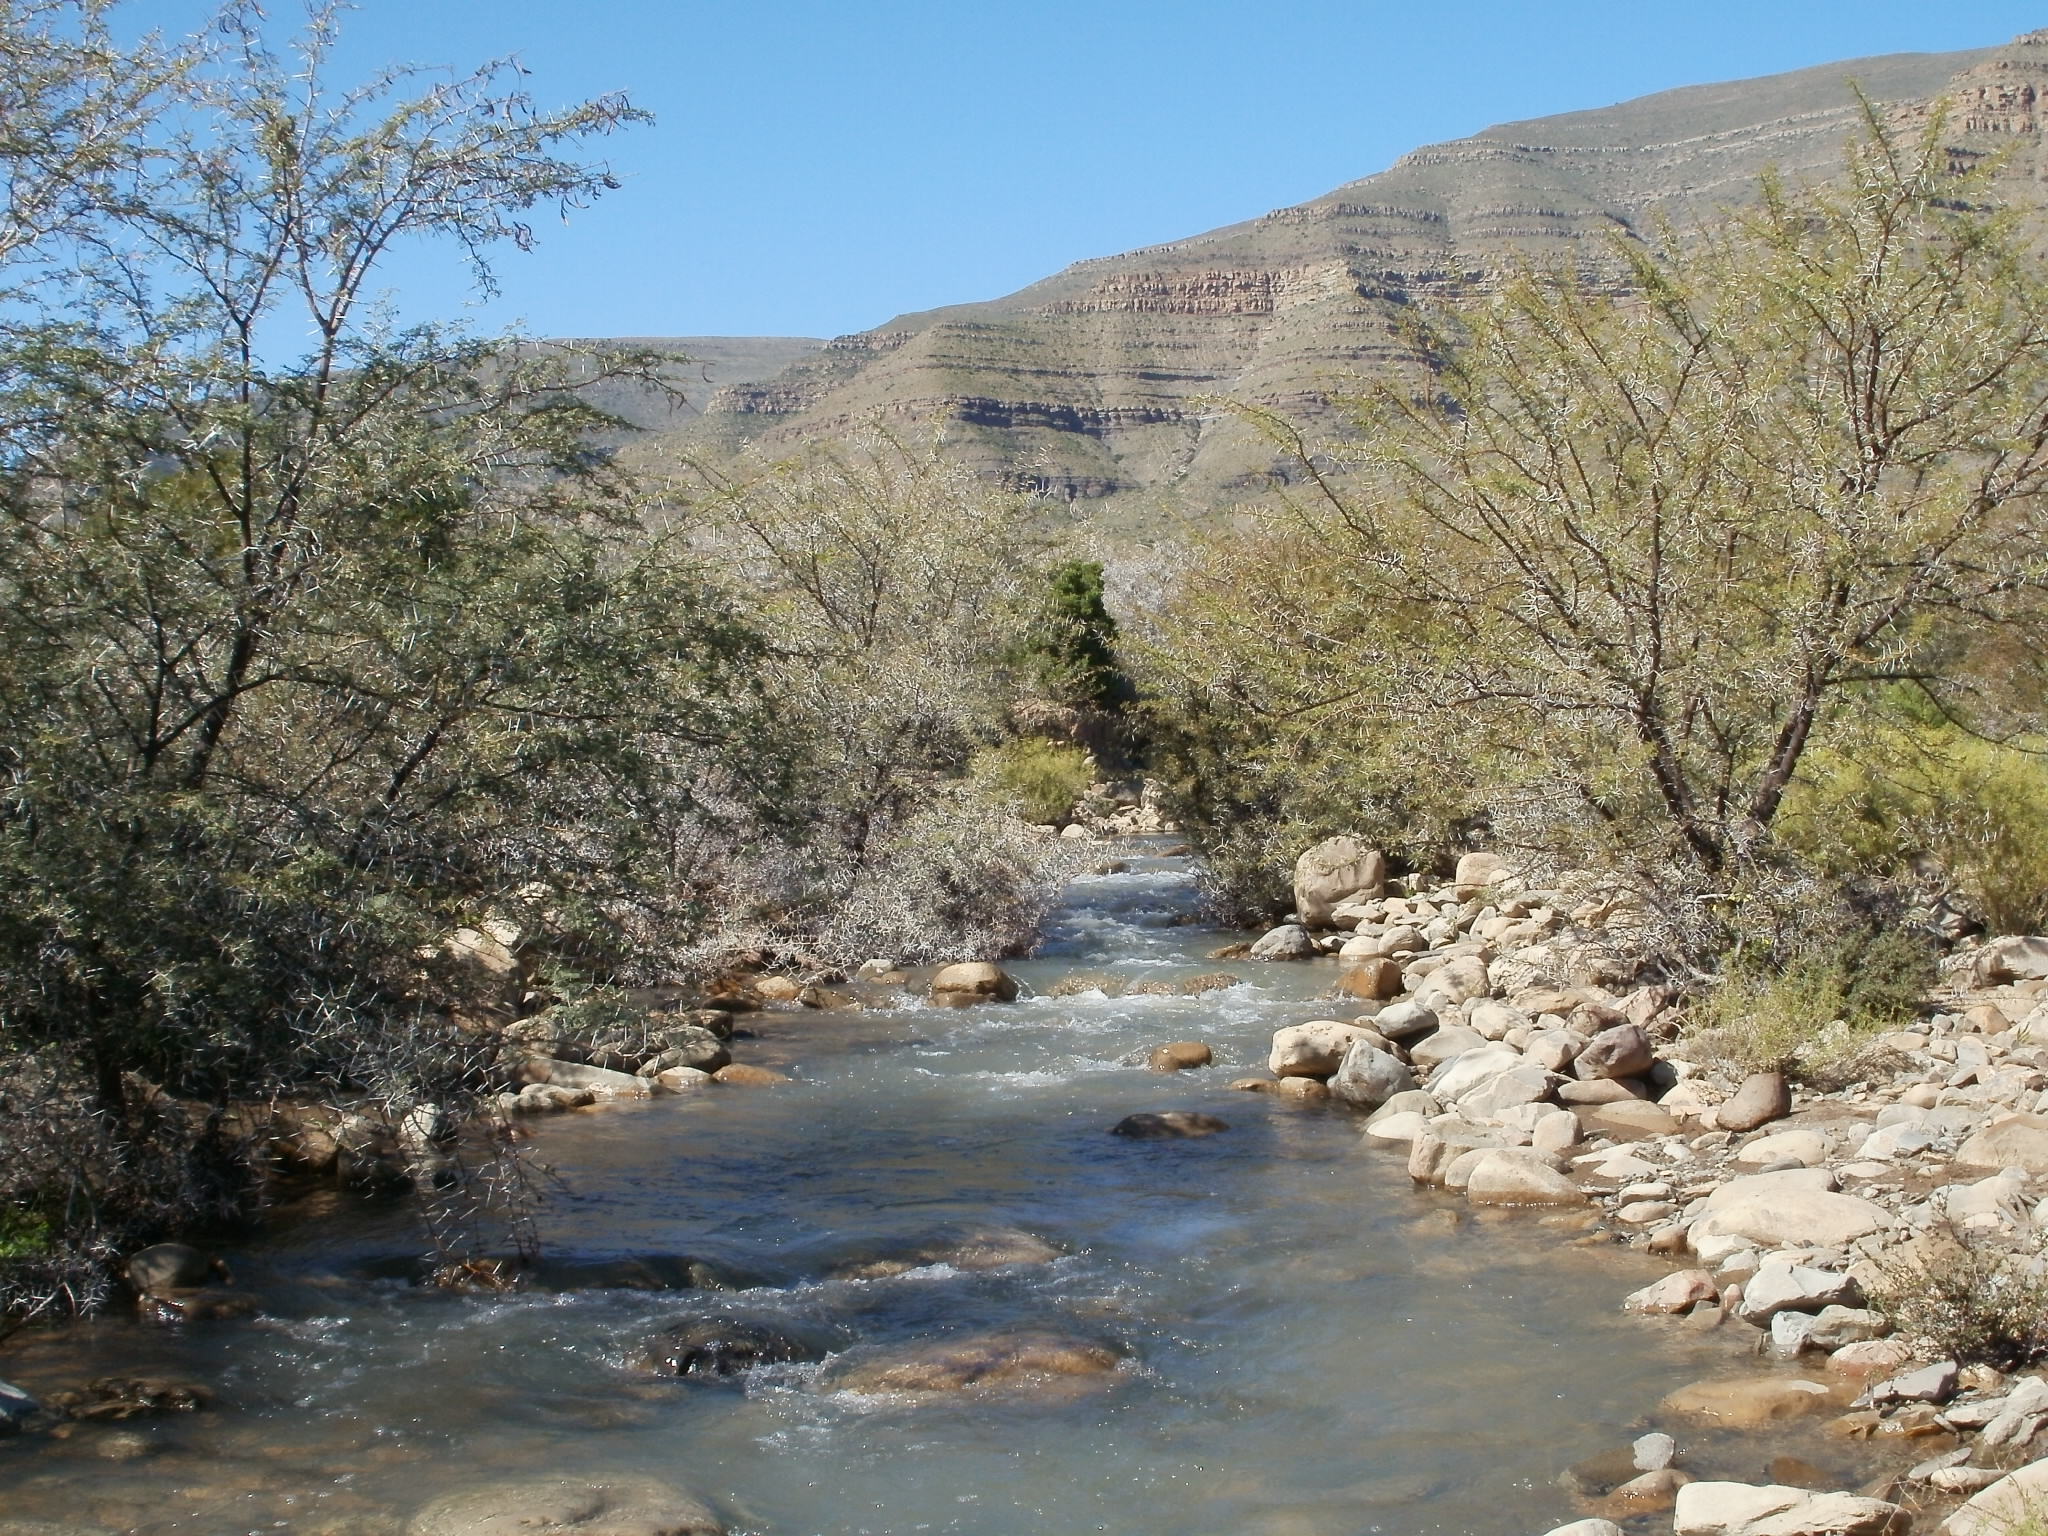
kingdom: Plantae
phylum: Tracheophyta
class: Magnoliopsida
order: Fabales
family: Fabaceae
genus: Vachellia
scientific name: Vachellia karroo
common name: Sweet thorn
